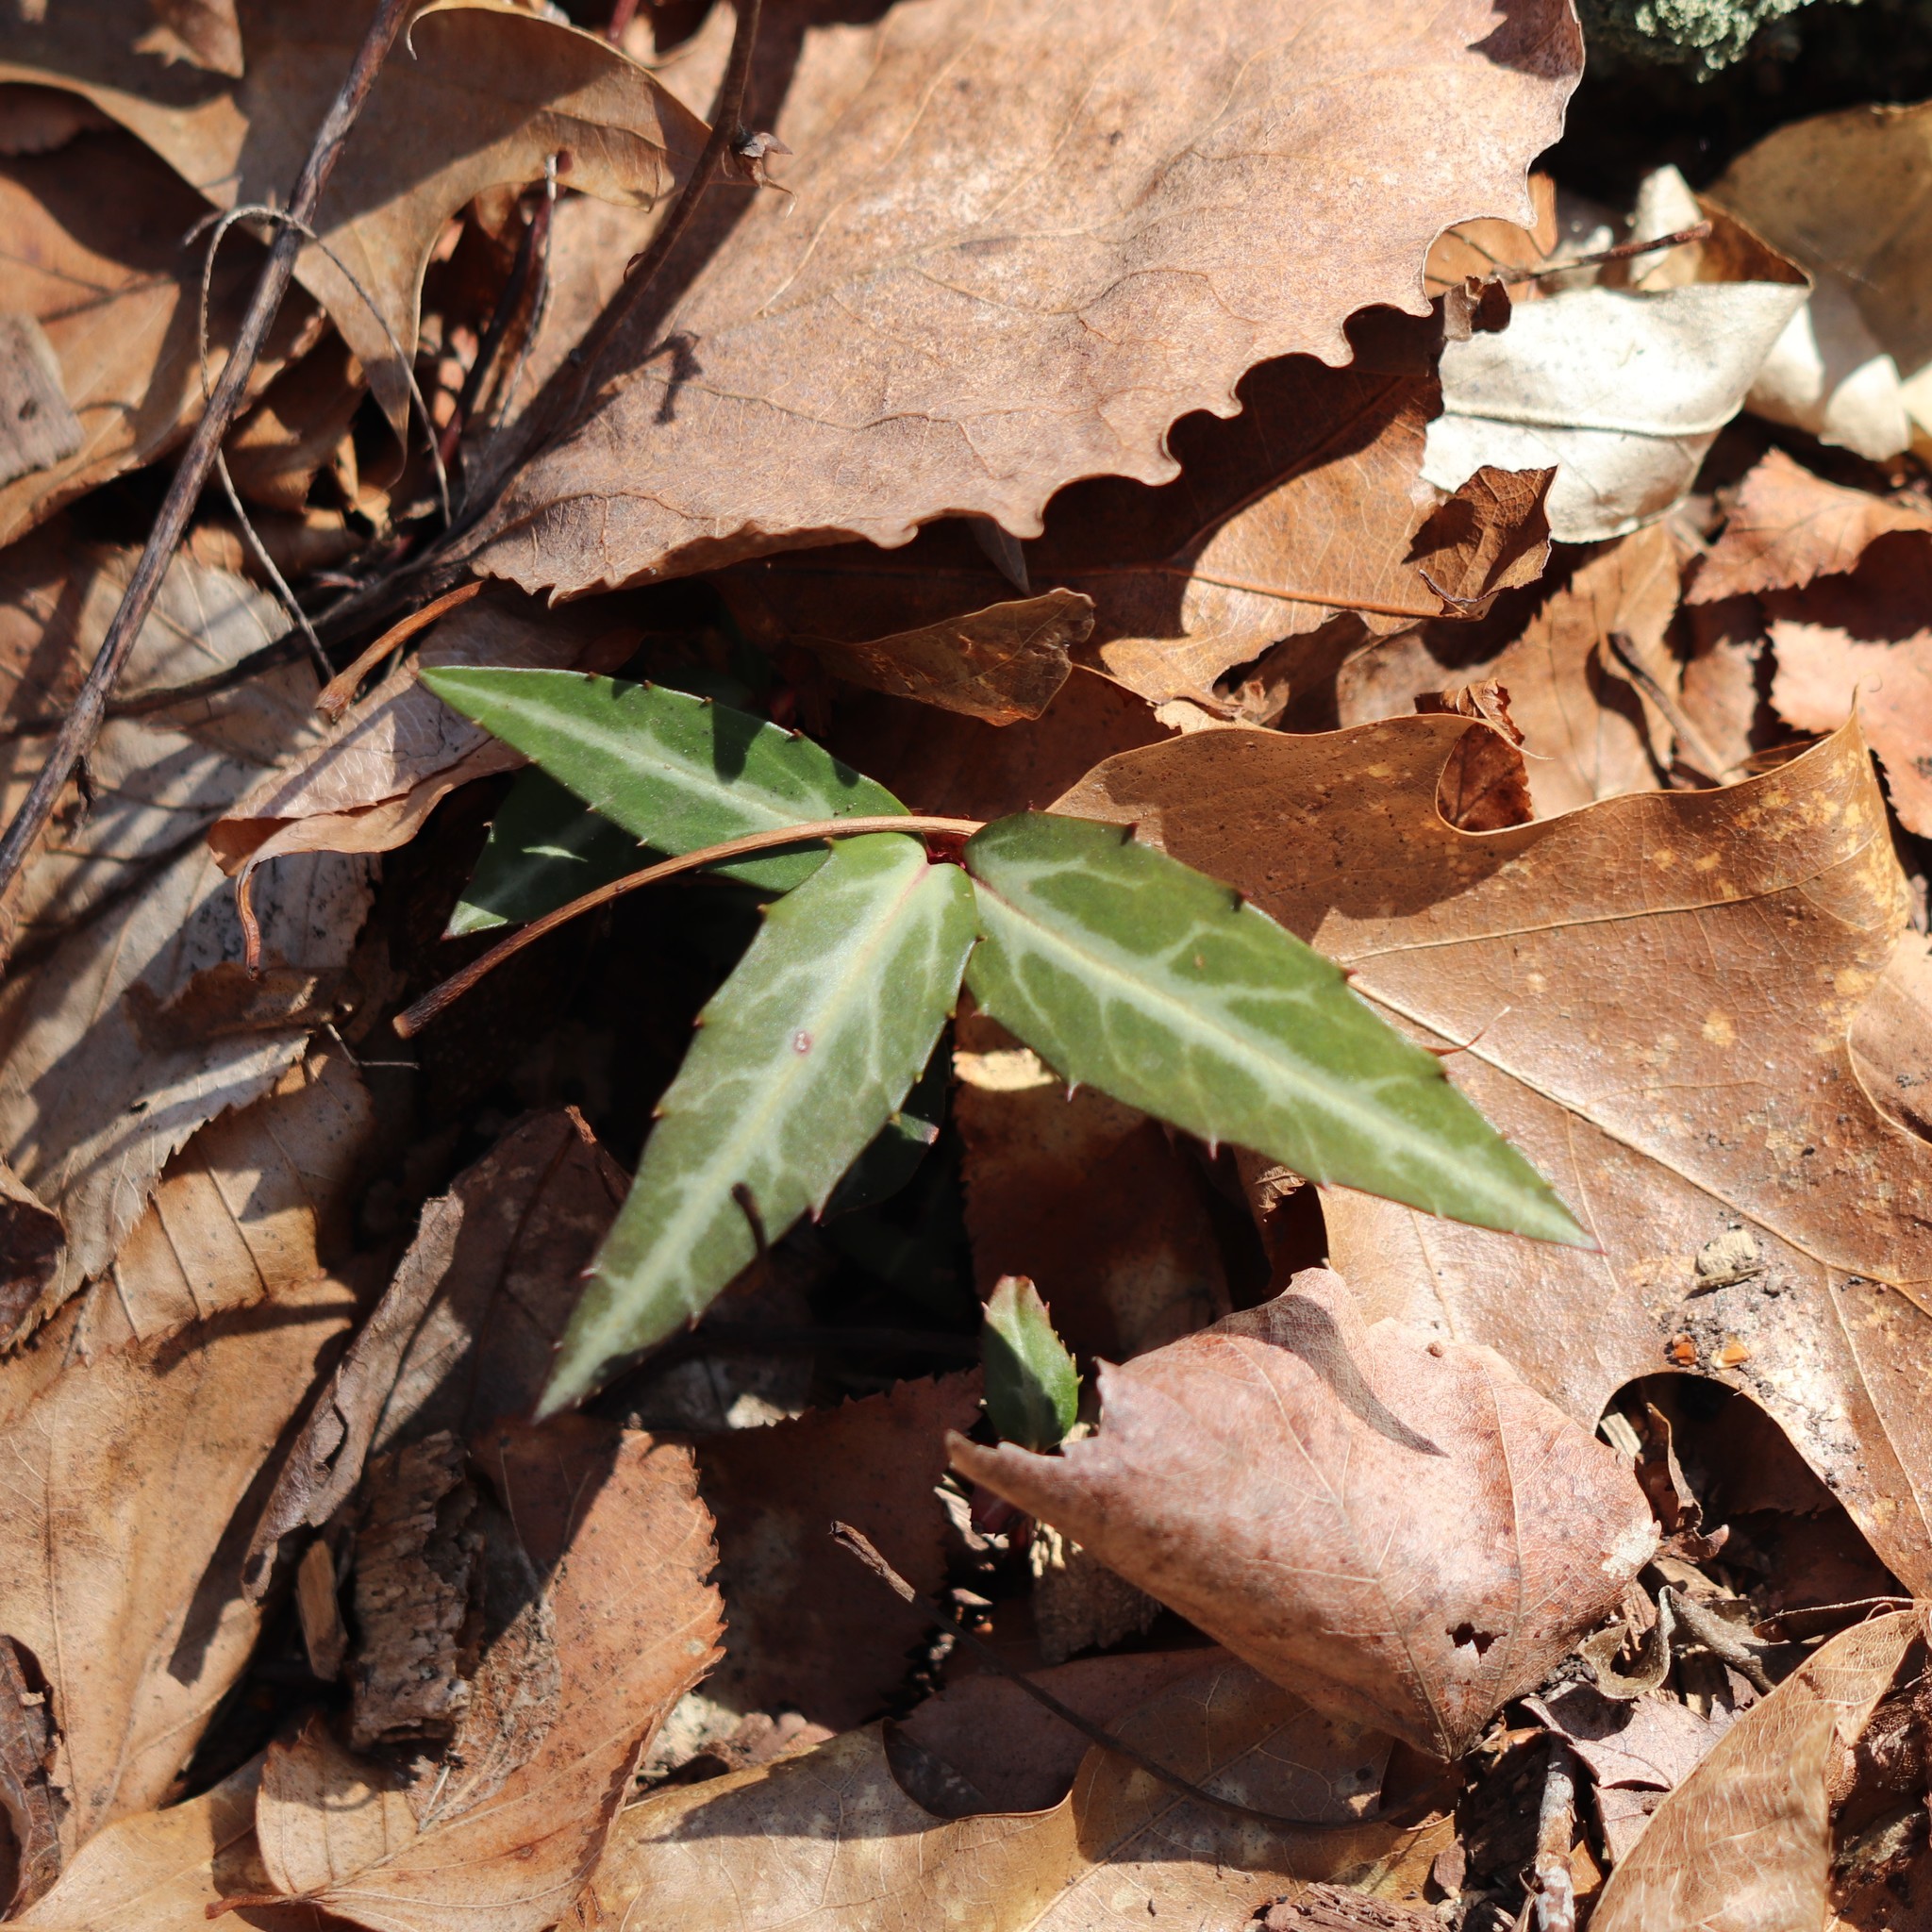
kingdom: Plantae
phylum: Tracheophyta
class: Magnoliopsida
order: Ericales
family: Ericaceae
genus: Chimaphila
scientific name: Chimaphila maculata
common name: Spotted pipsissewa
